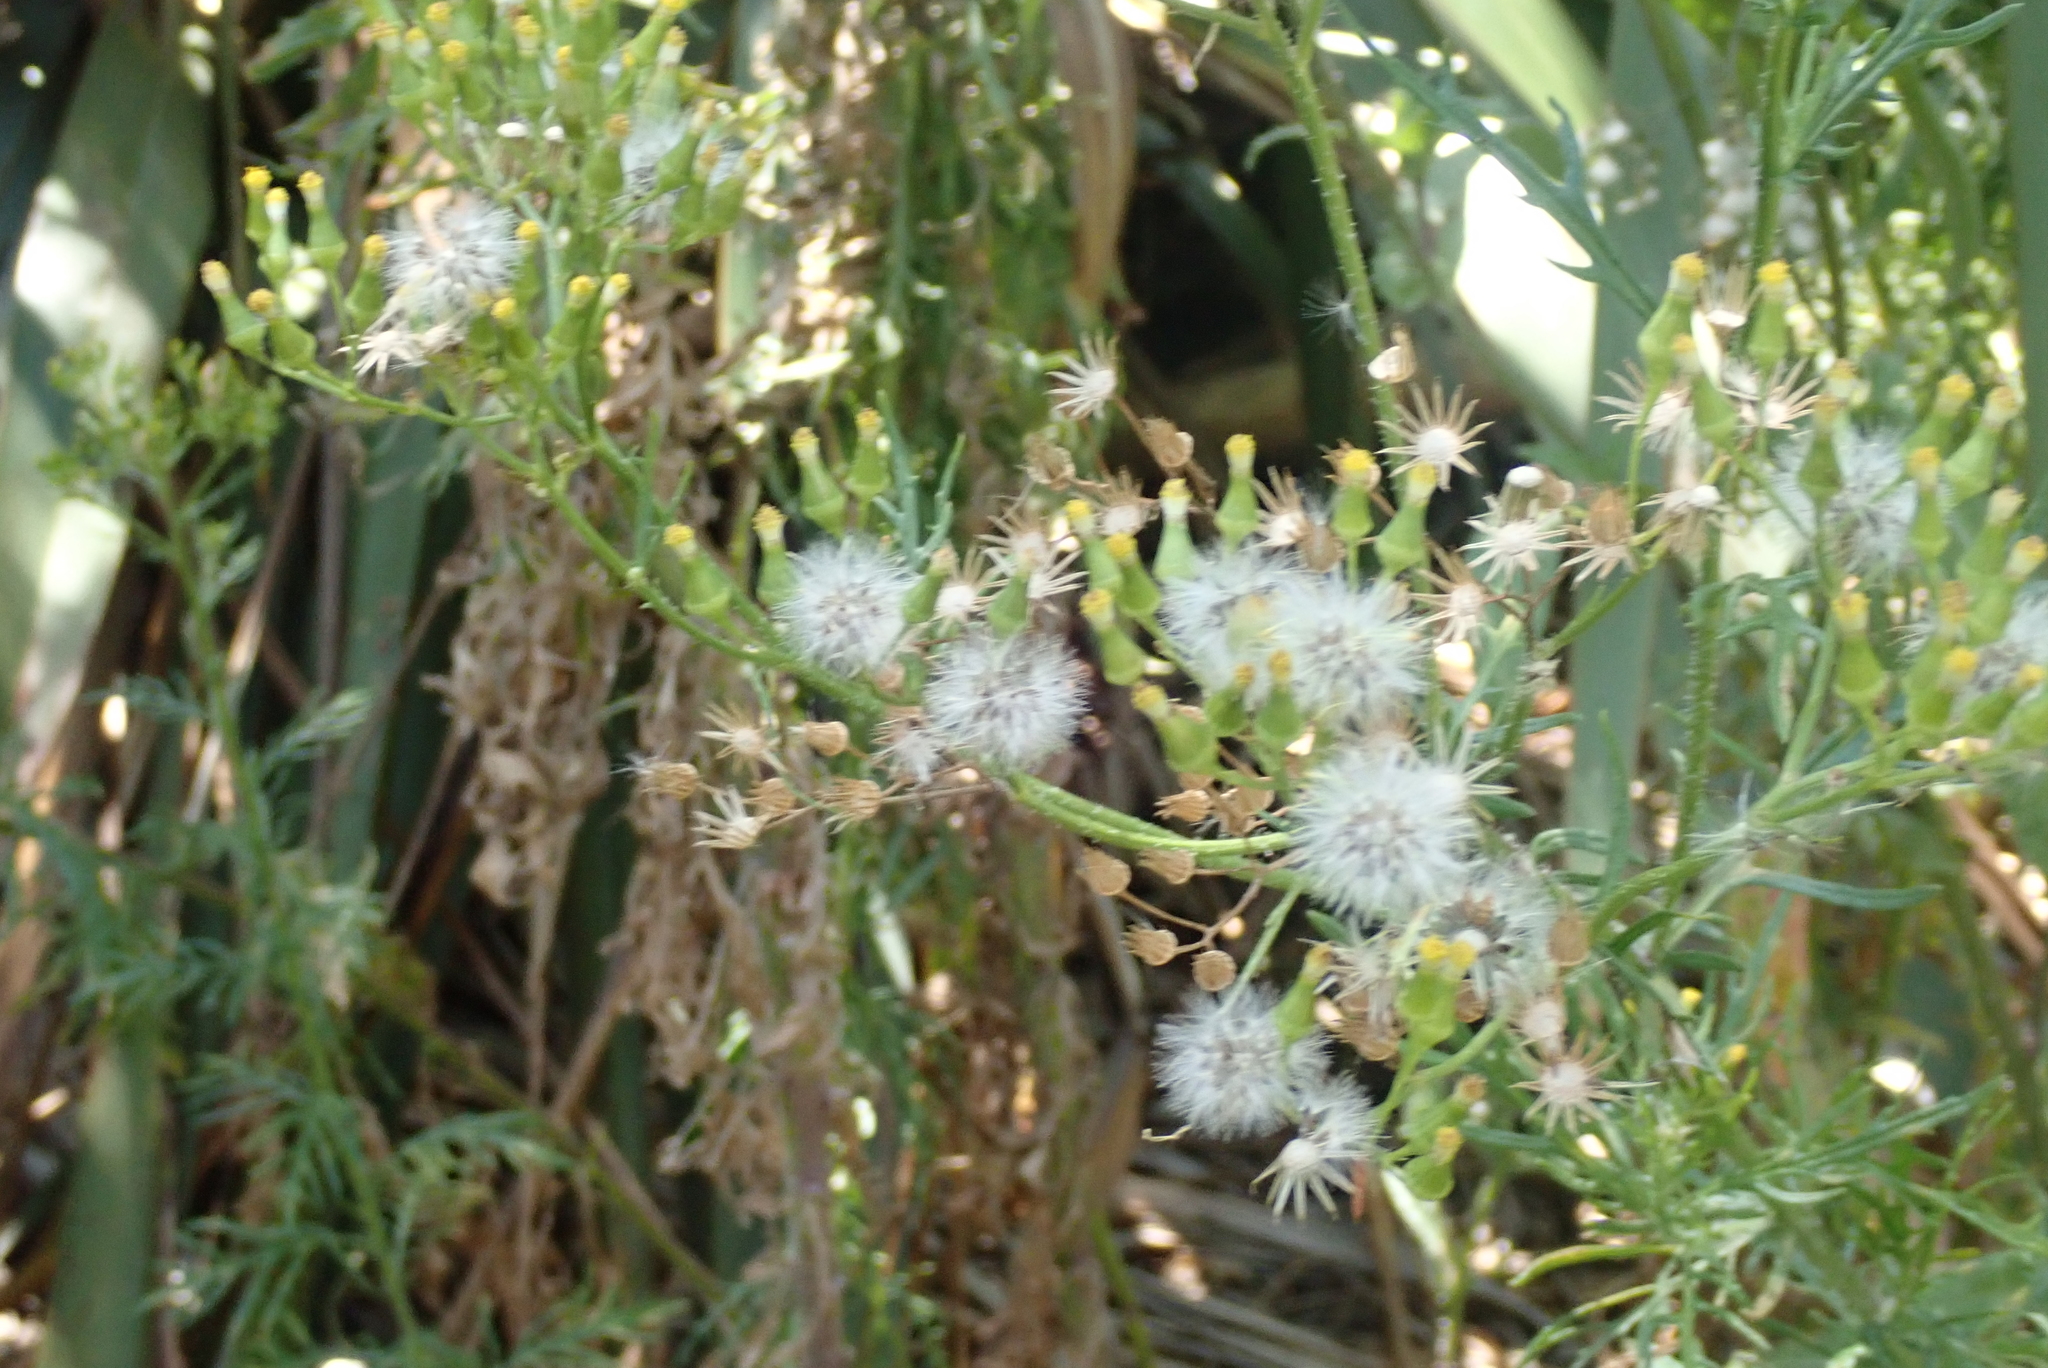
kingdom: Plantae
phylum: Tracheophyta
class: Magnoliopsida
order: Asterales
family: Asteraceae
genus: Senecio
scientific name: Senecio esleri
